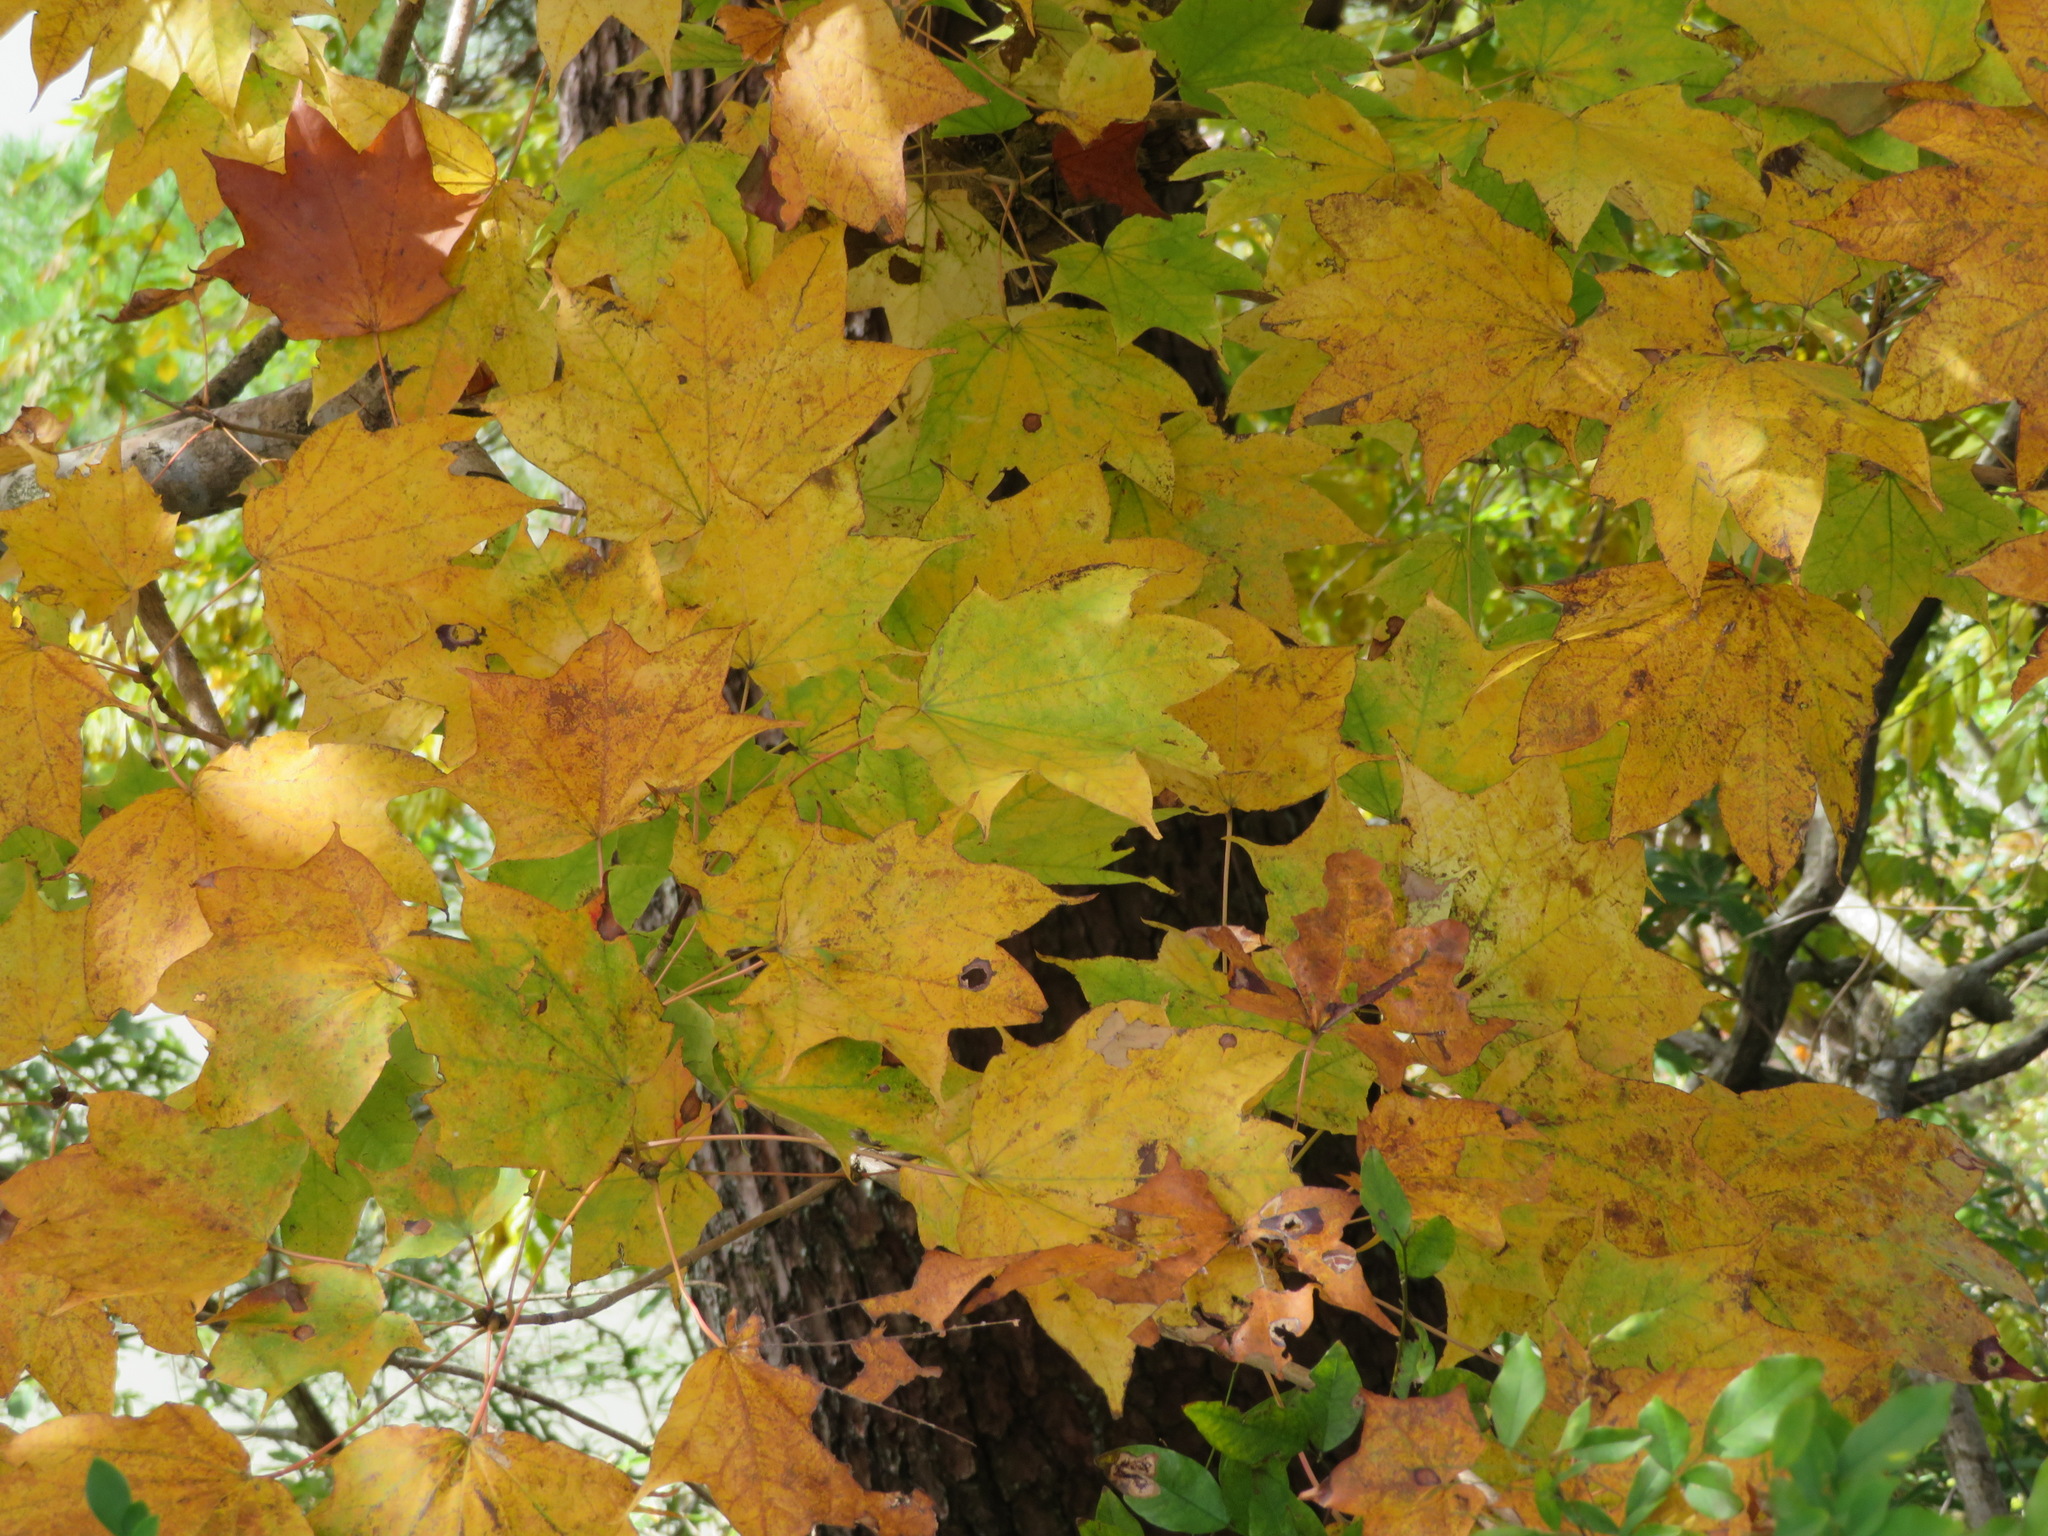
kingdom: Plantae
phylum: Tracheophyta
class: Magnoliopsida
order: Sapindales
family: Sapindaceae
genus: Acer
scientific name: Acer pictum
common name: The painted maple
